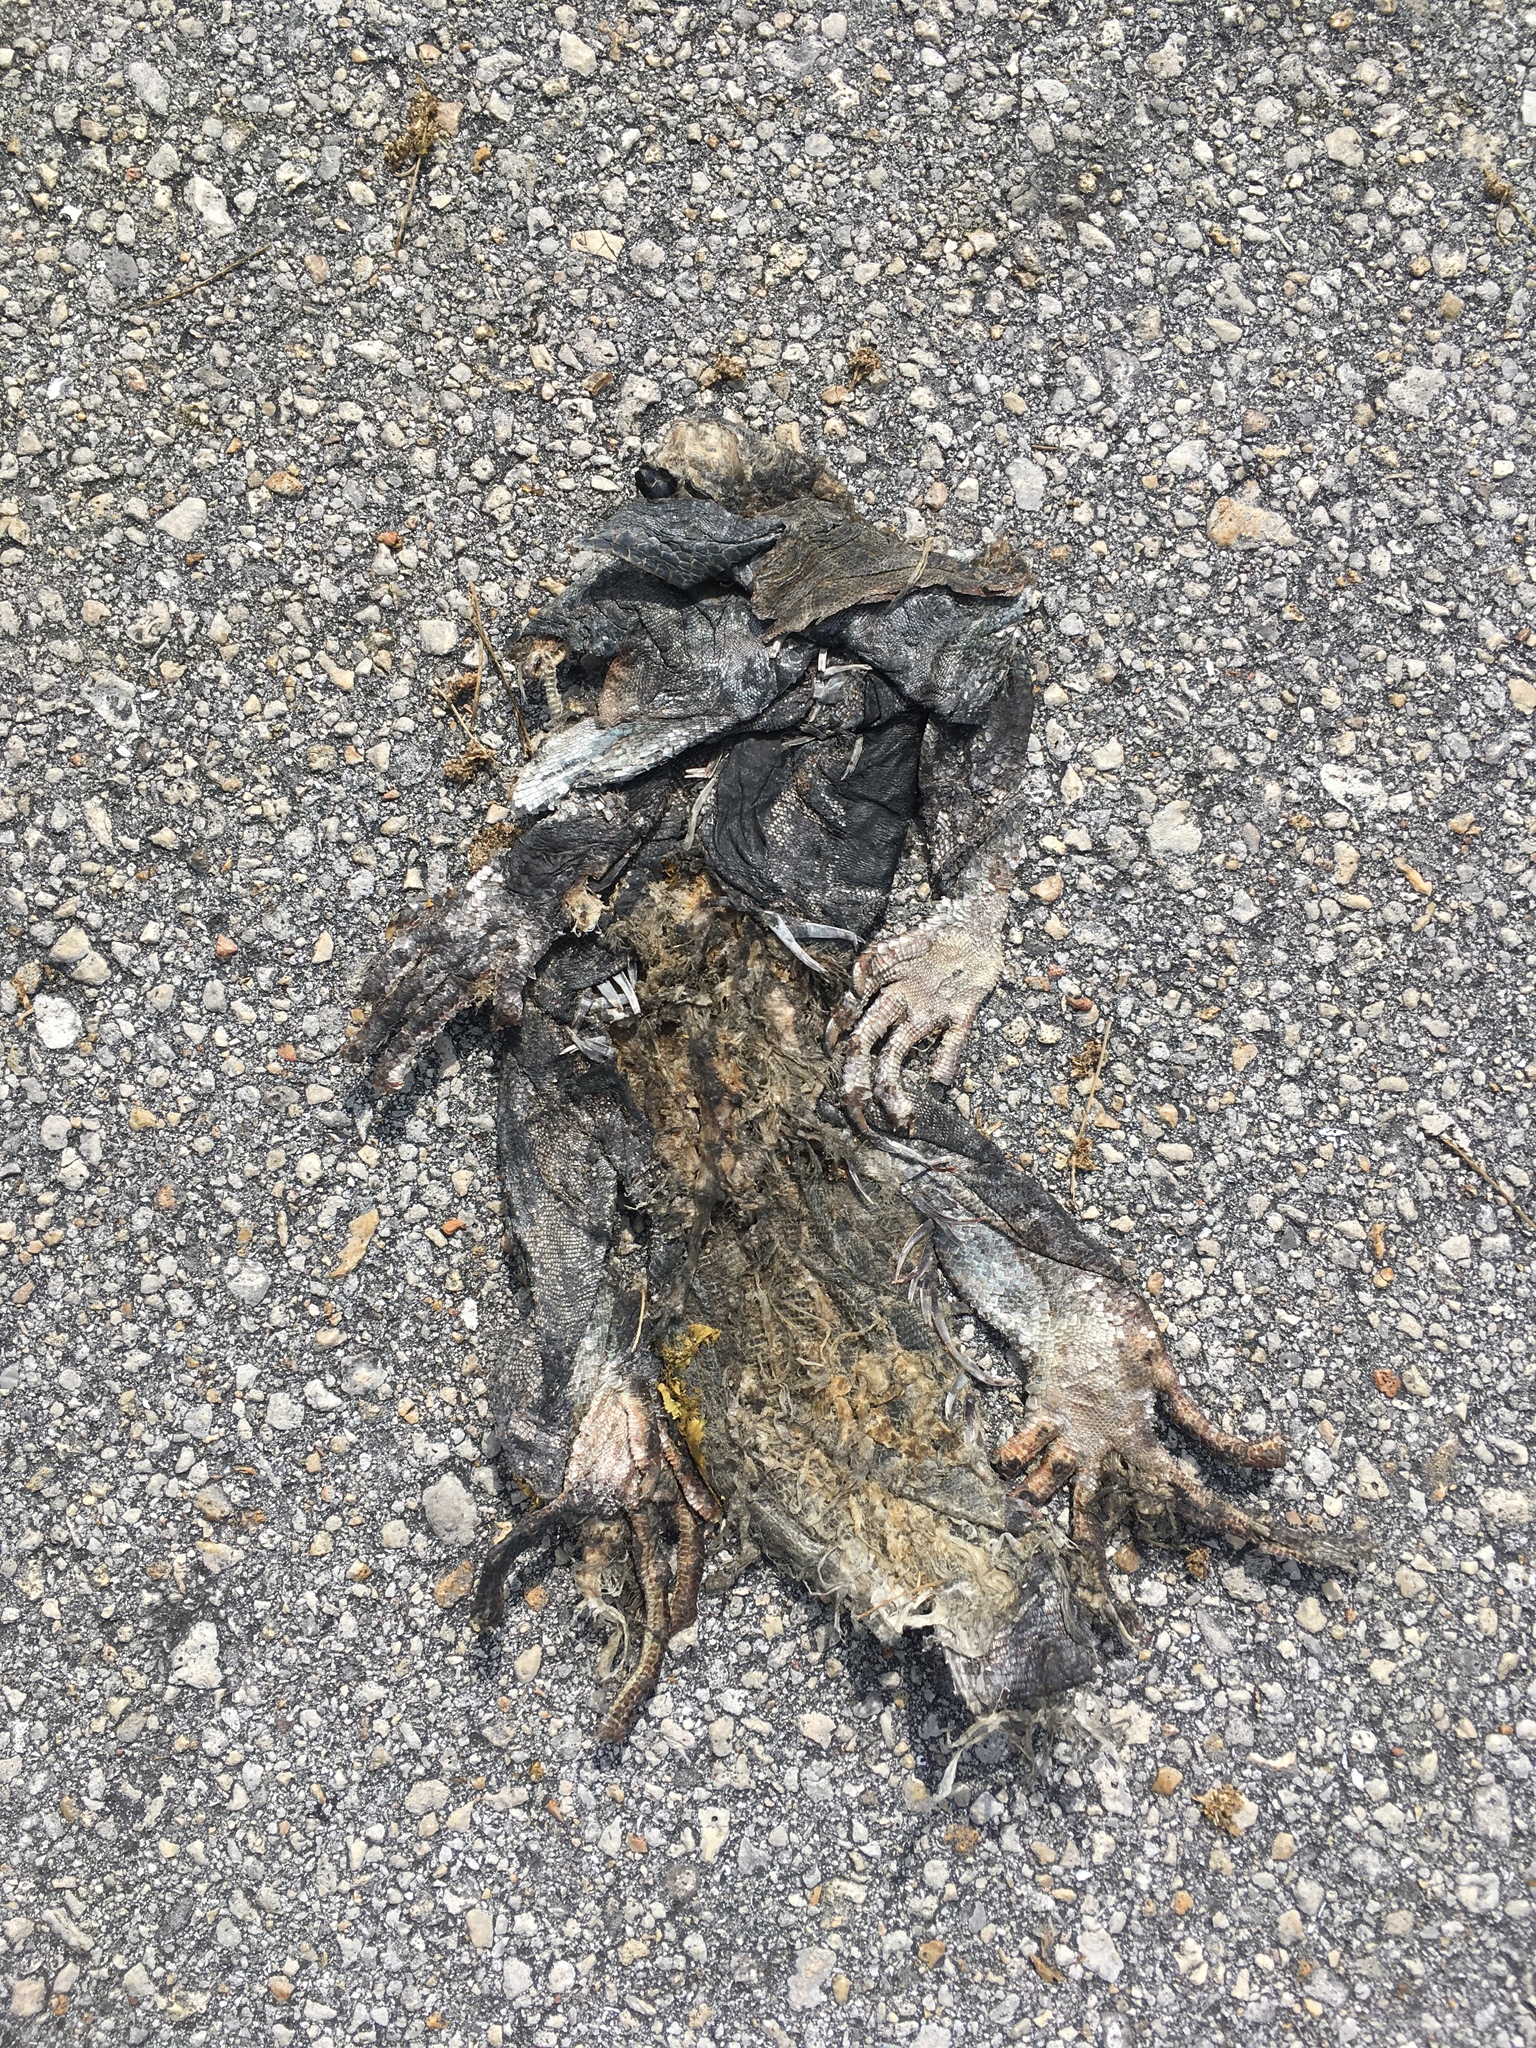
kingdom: Animalia
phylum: Chordata
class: Squamata
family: Iguanidae
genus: Iguana
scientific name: Iguana iguana
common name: Green iguana
